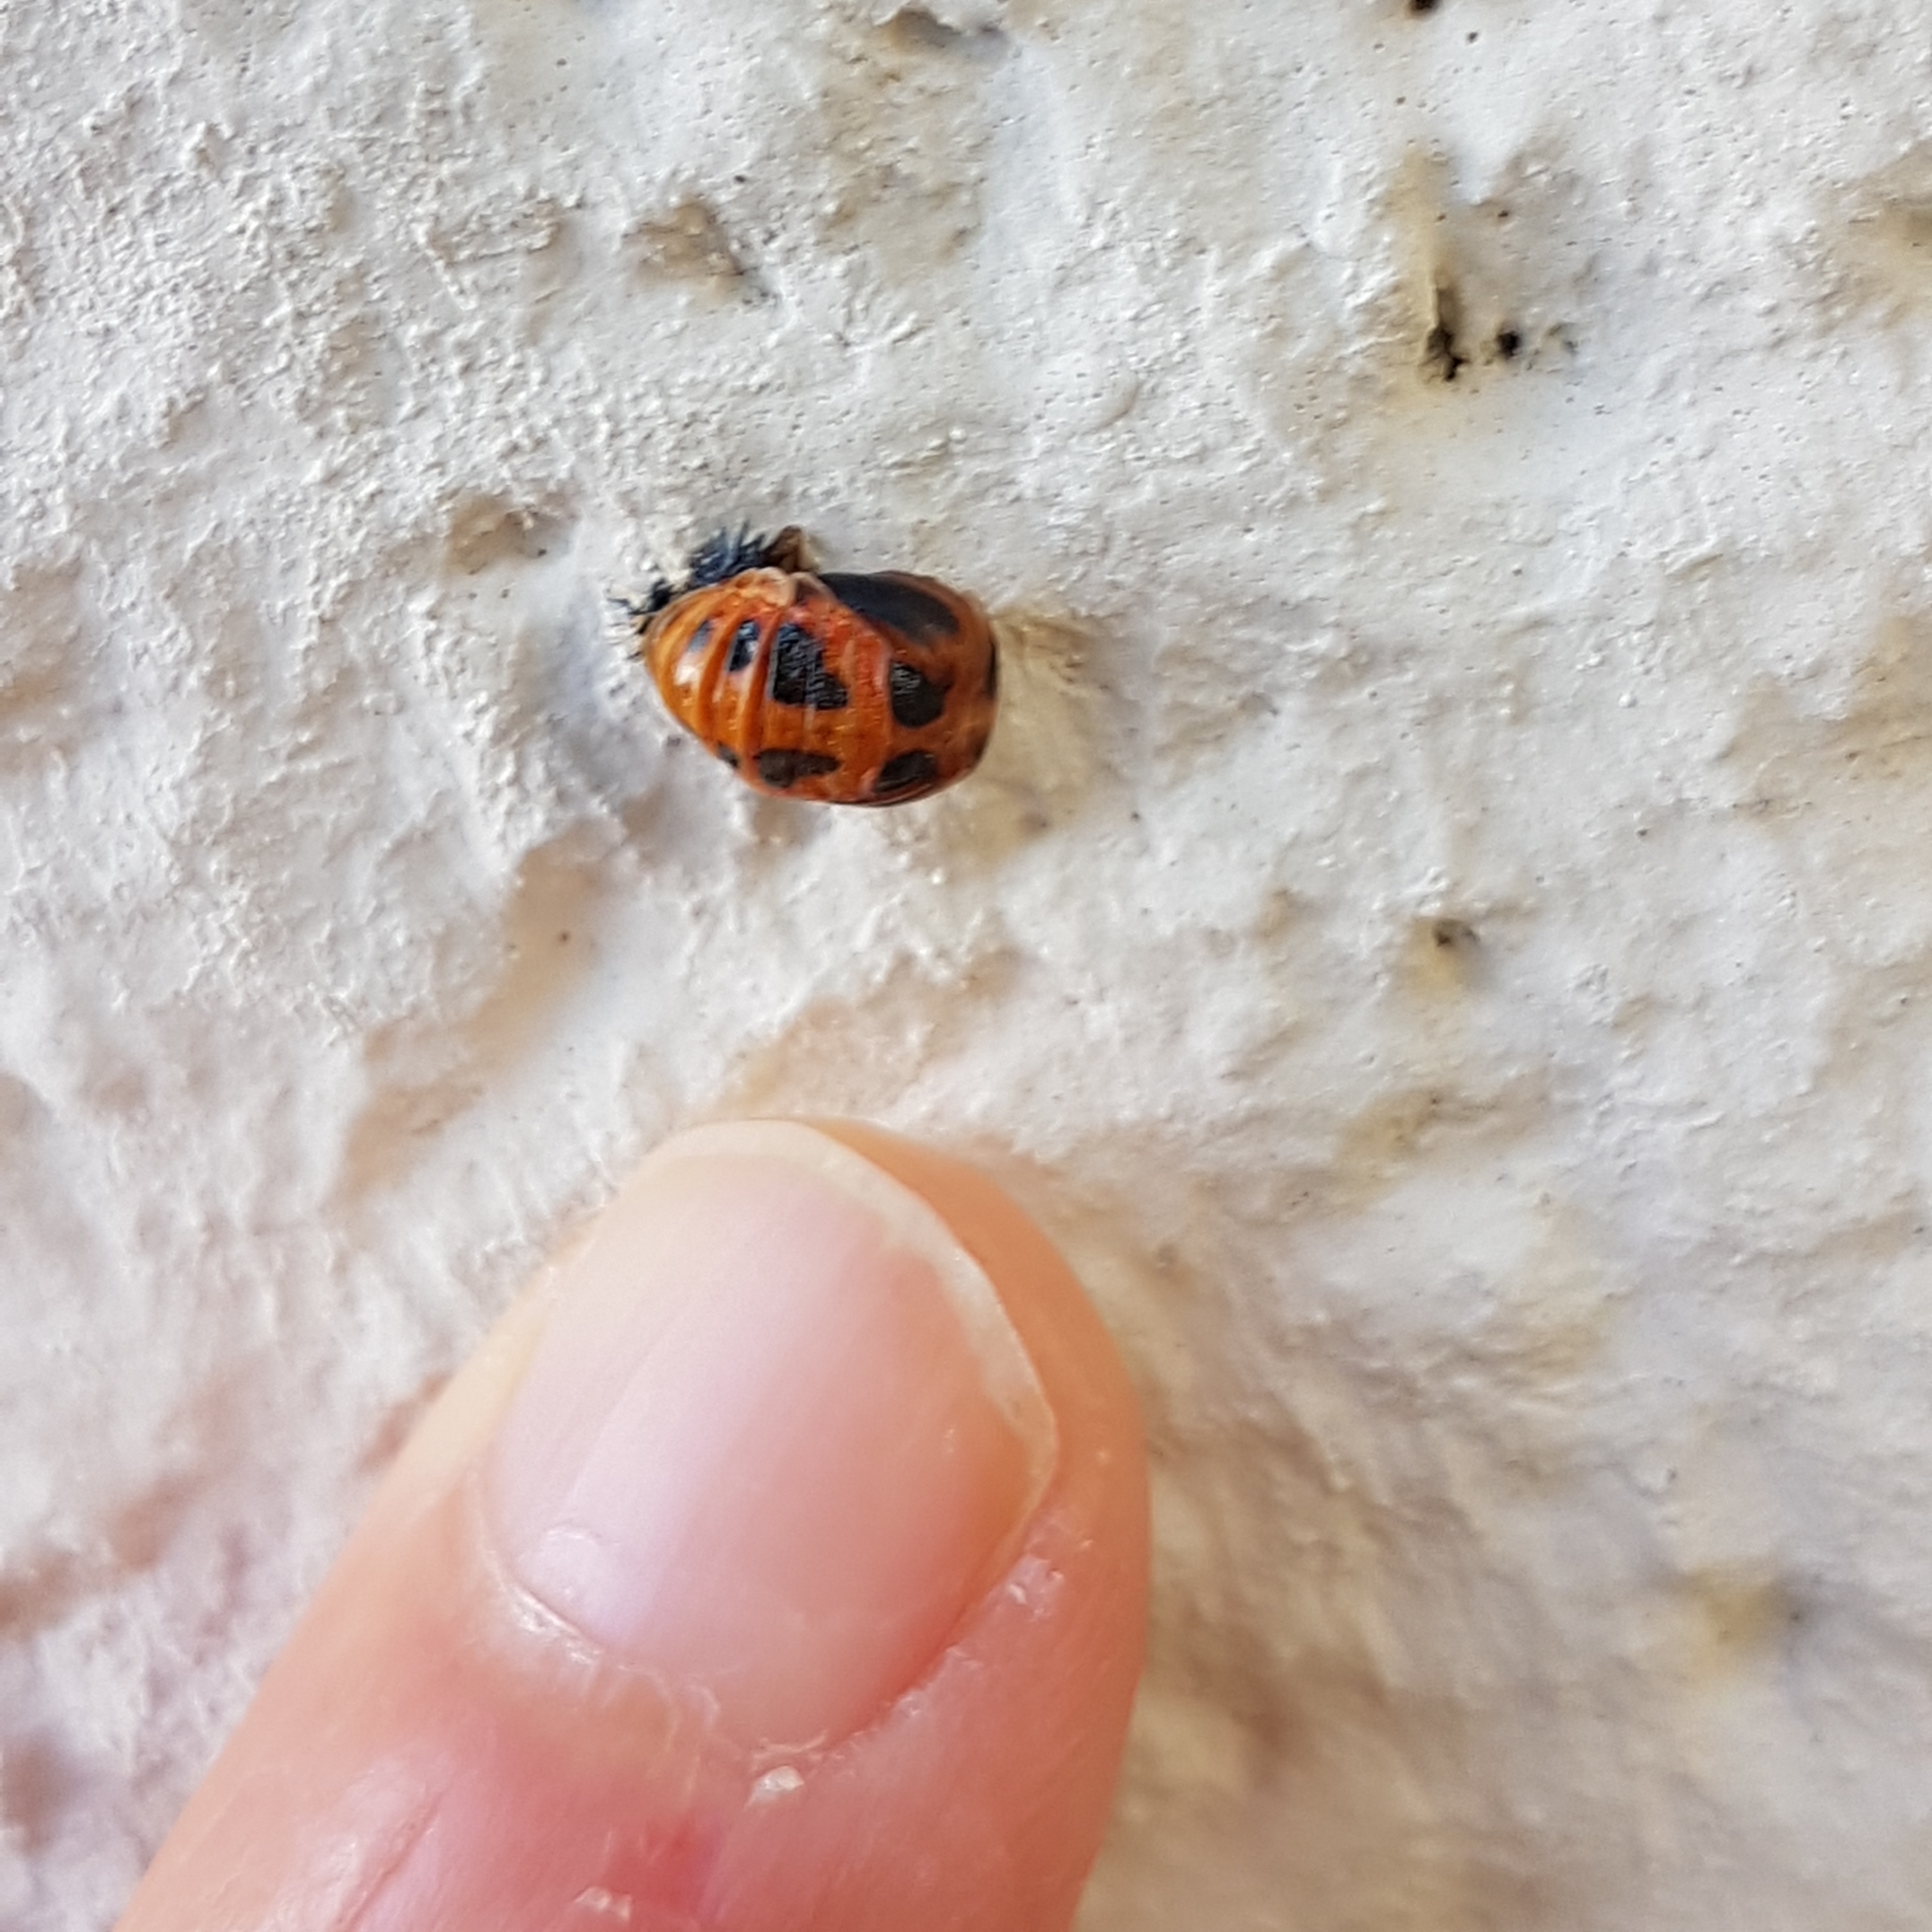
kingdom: Animalia
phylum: Arthropoda
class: Insecta
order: Coleoptera
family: Coccinellidae
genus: Harmonia
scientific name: Harmonia axyridis
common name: Harlequin ladybird
